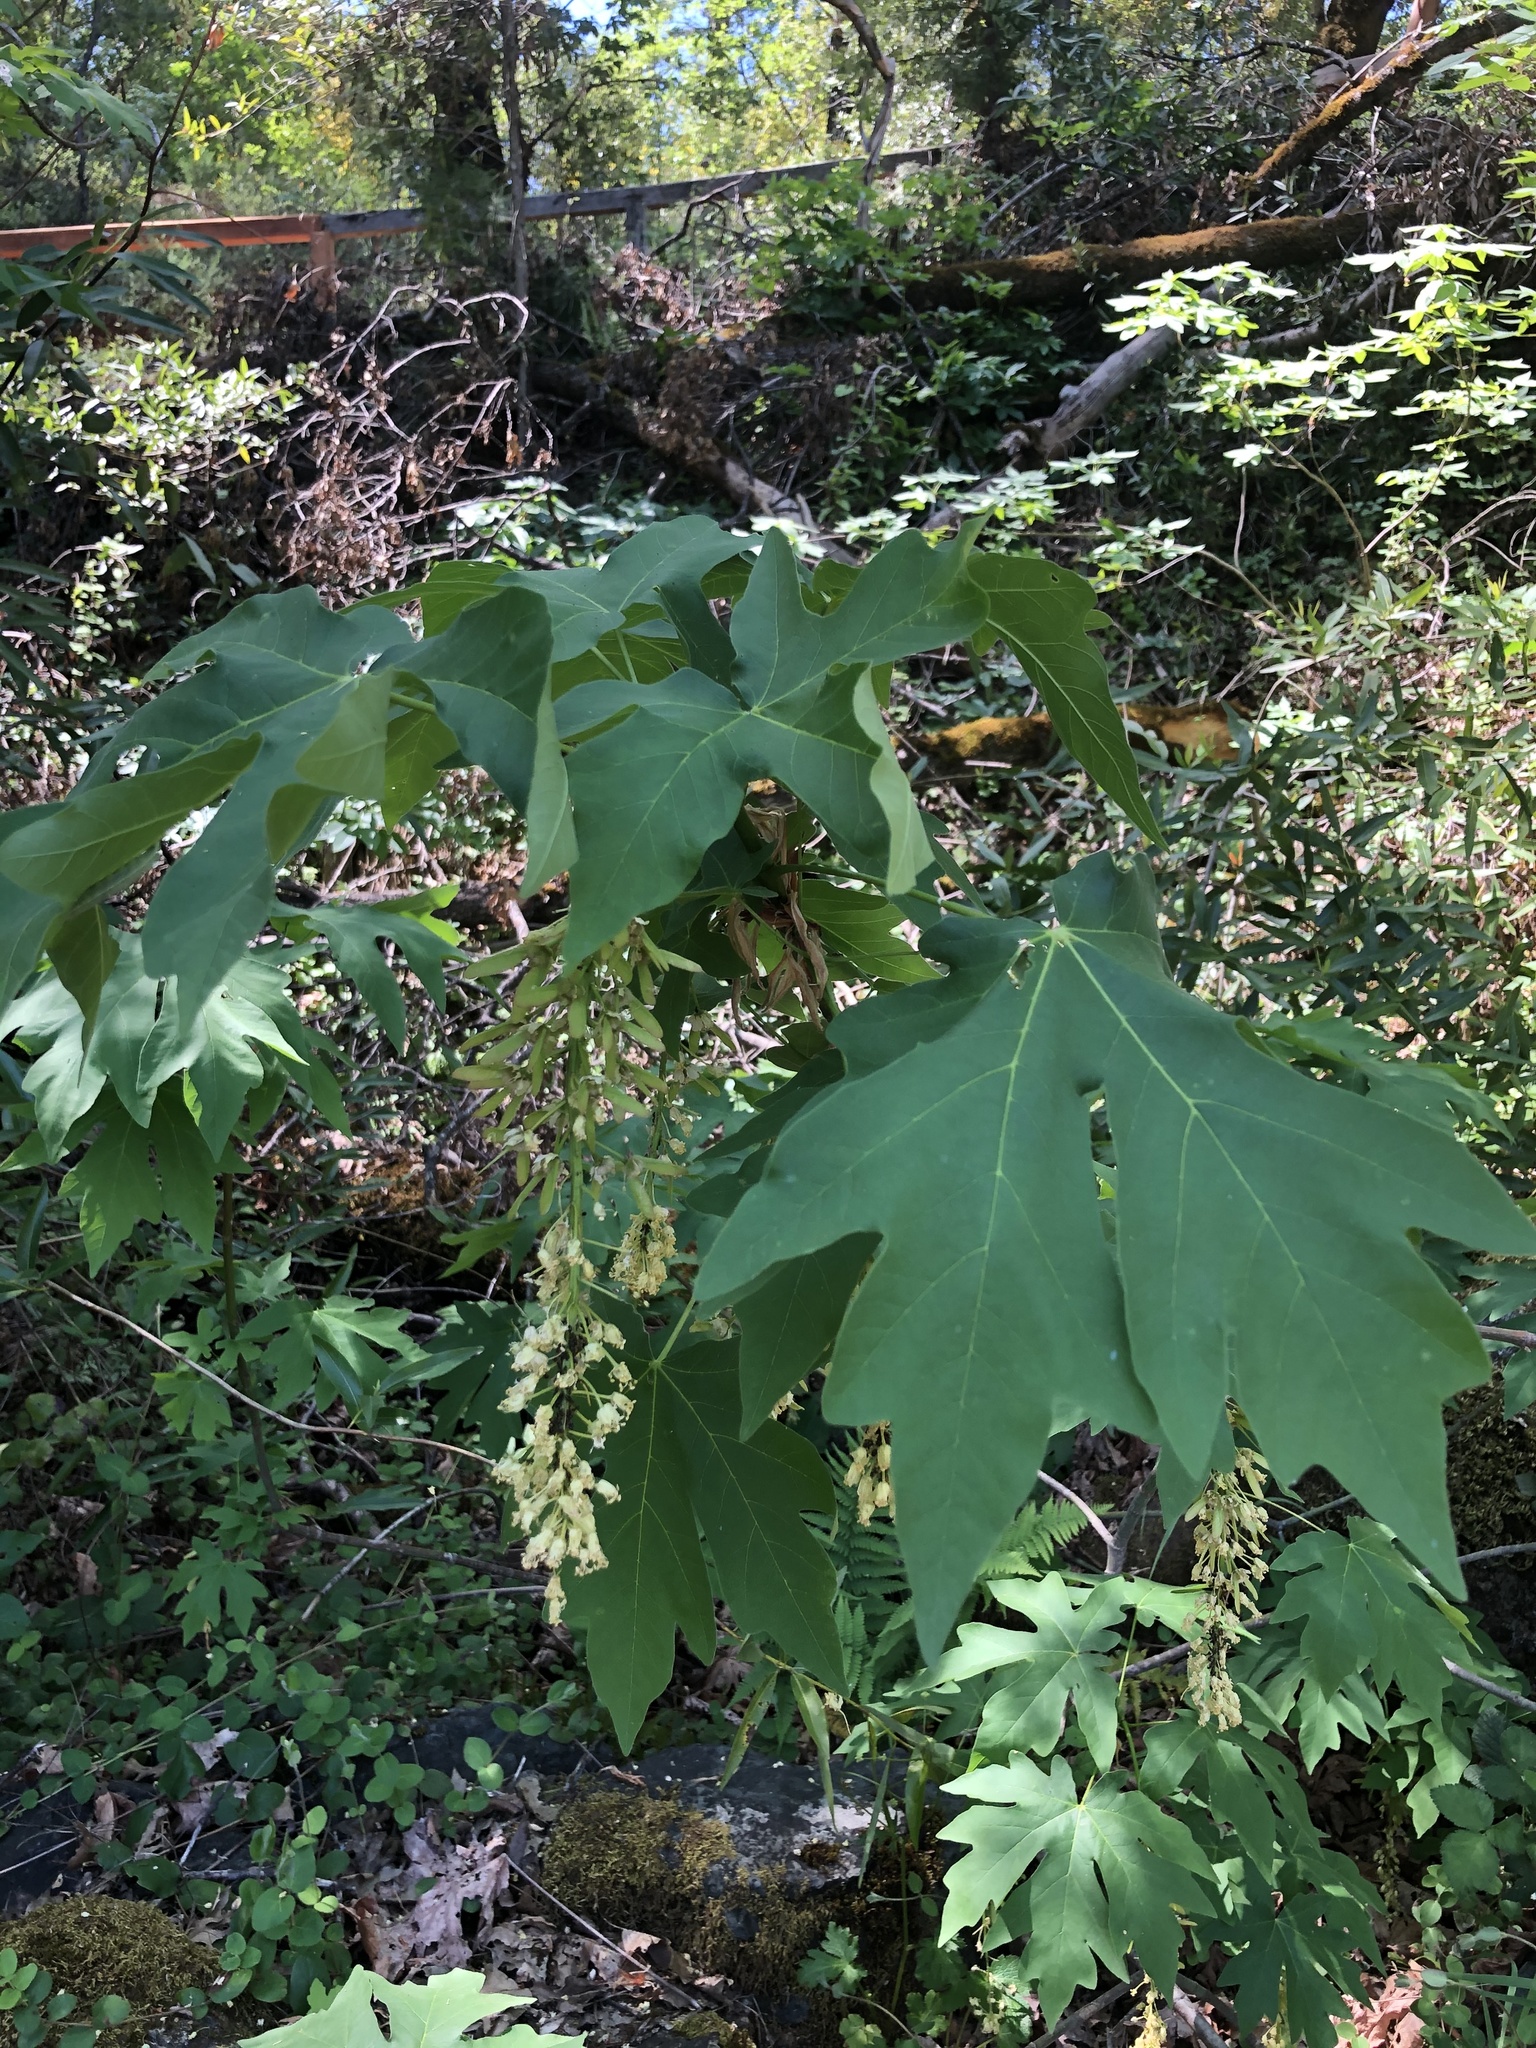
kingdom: Plantae
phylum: Tracheophyta
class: Magnoliopsida
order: Sapindales
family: Sapindaceae
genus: Acer
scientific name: Acer macrophyllum
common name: Oregon maple
